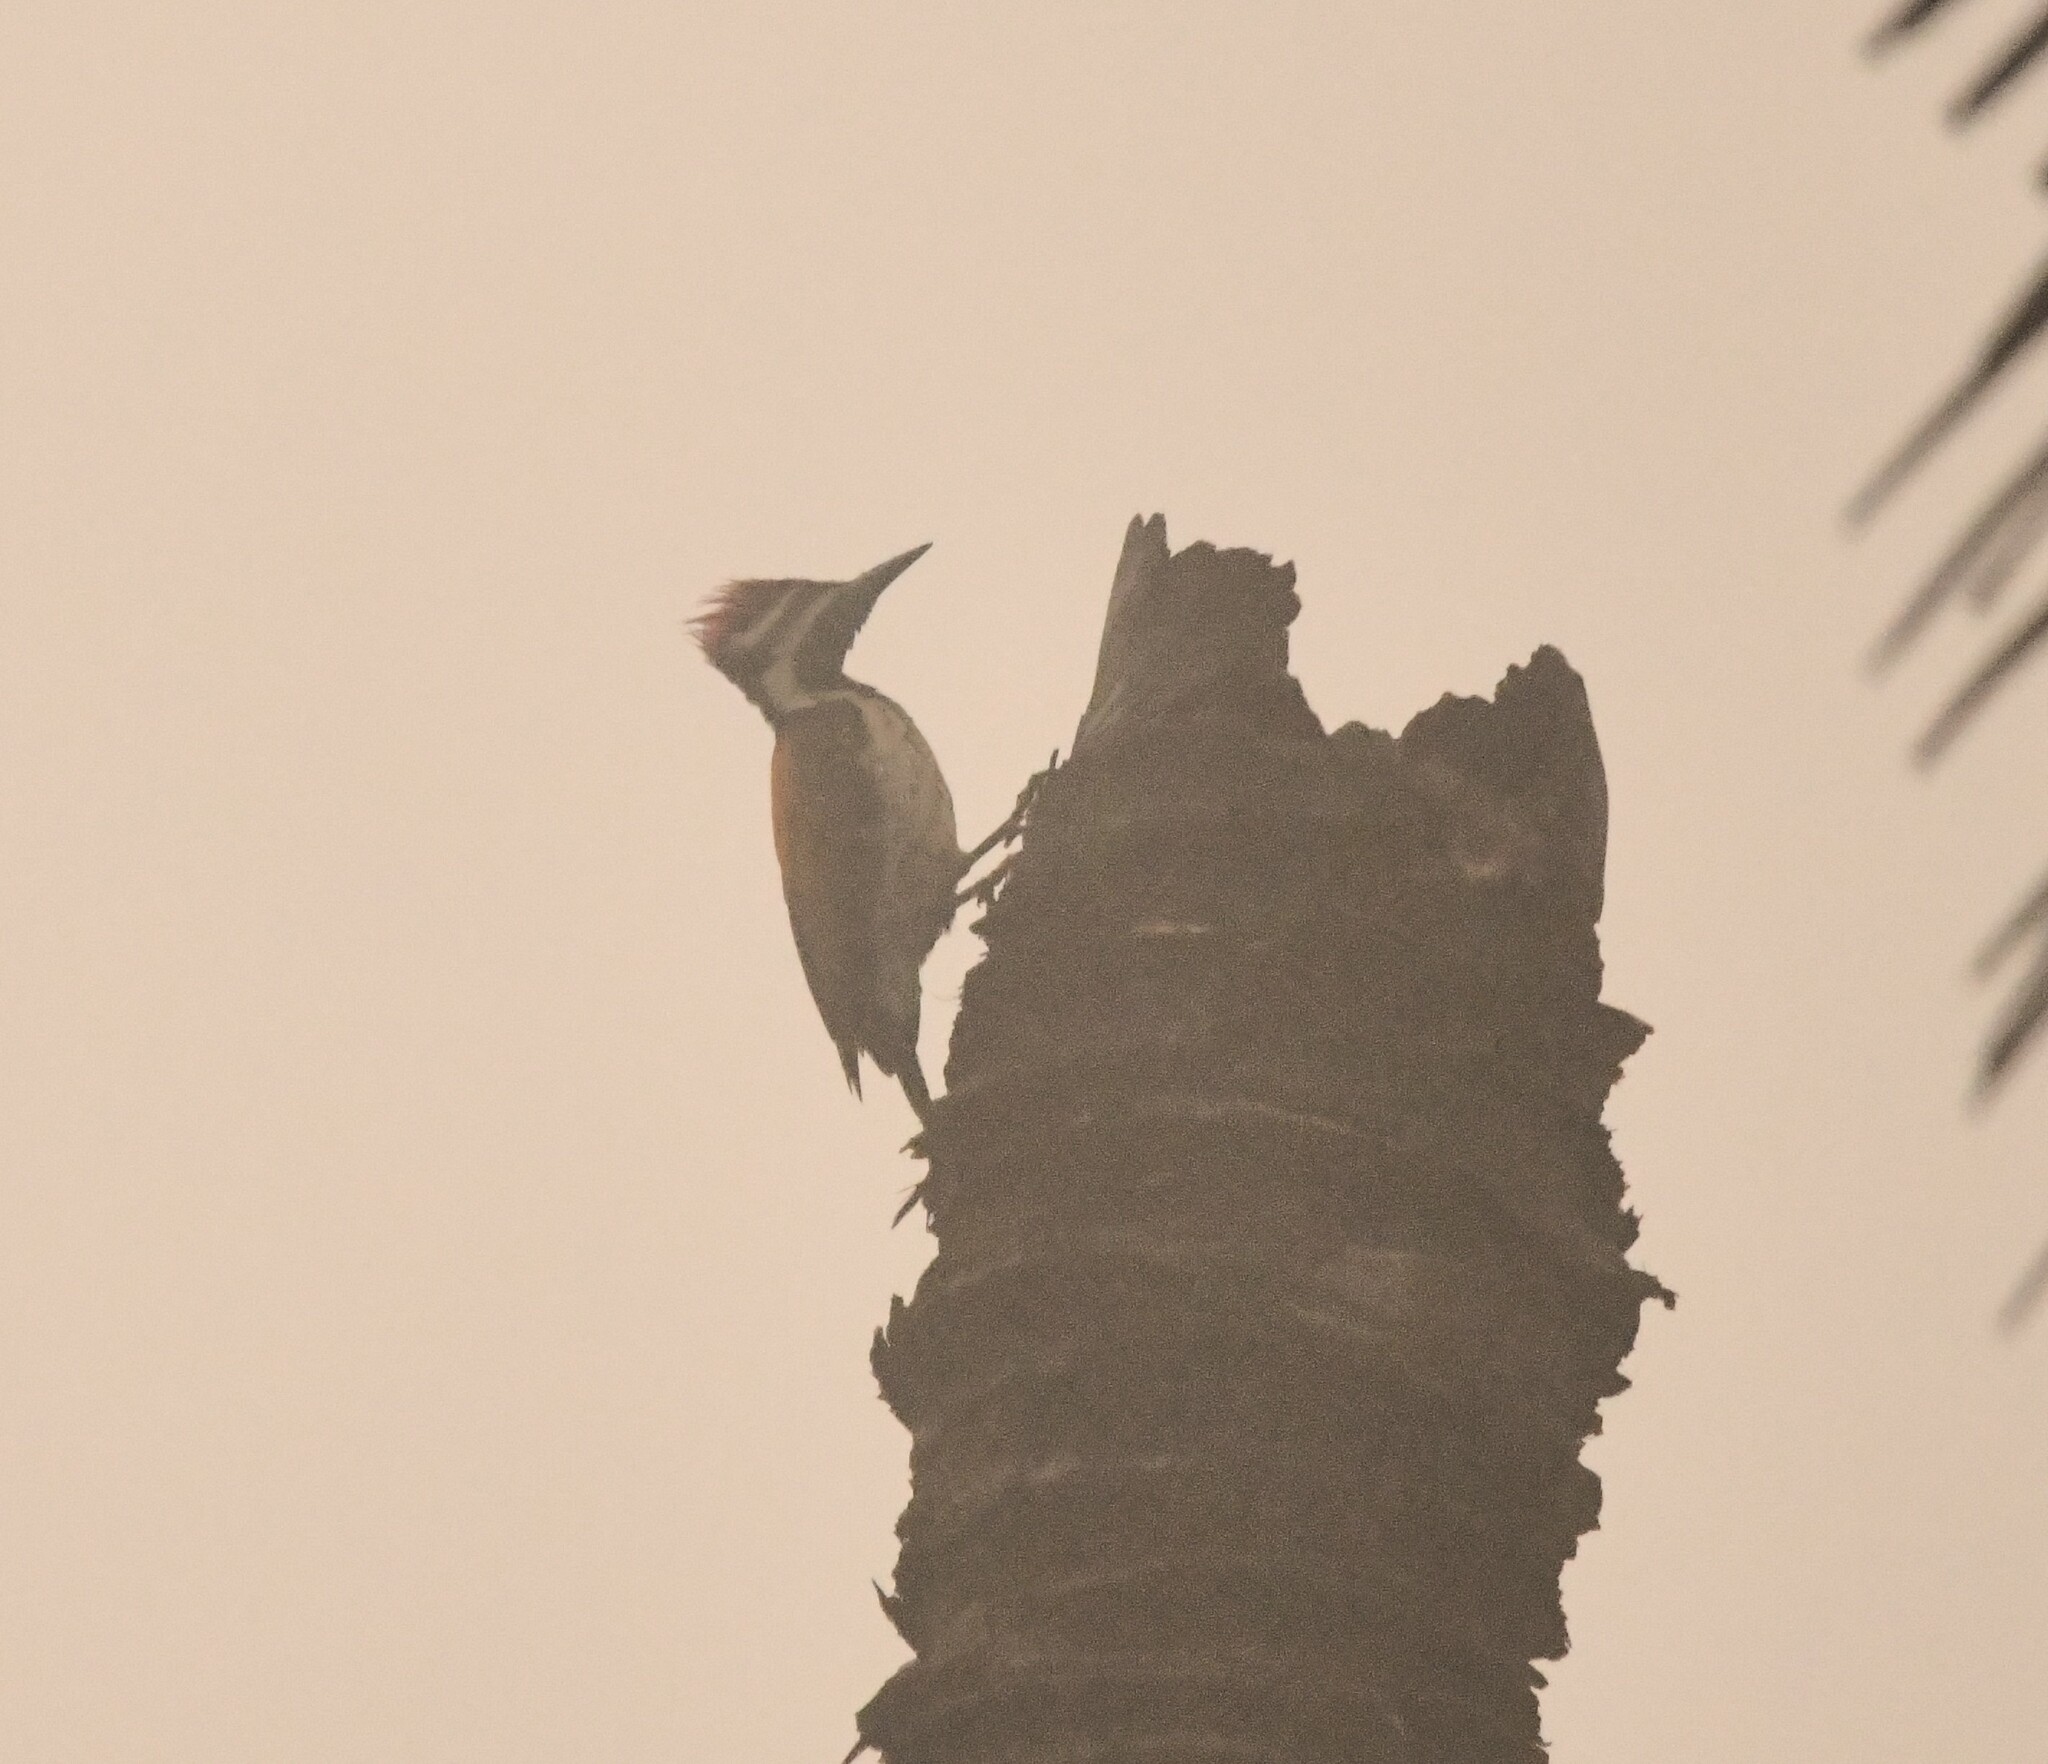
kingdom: Animalia
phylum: Chordata
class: Aves
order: Piciformes
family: Picidae
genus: Dinopium
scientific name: Dinopium benghalense
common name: Black-rumped flameback
